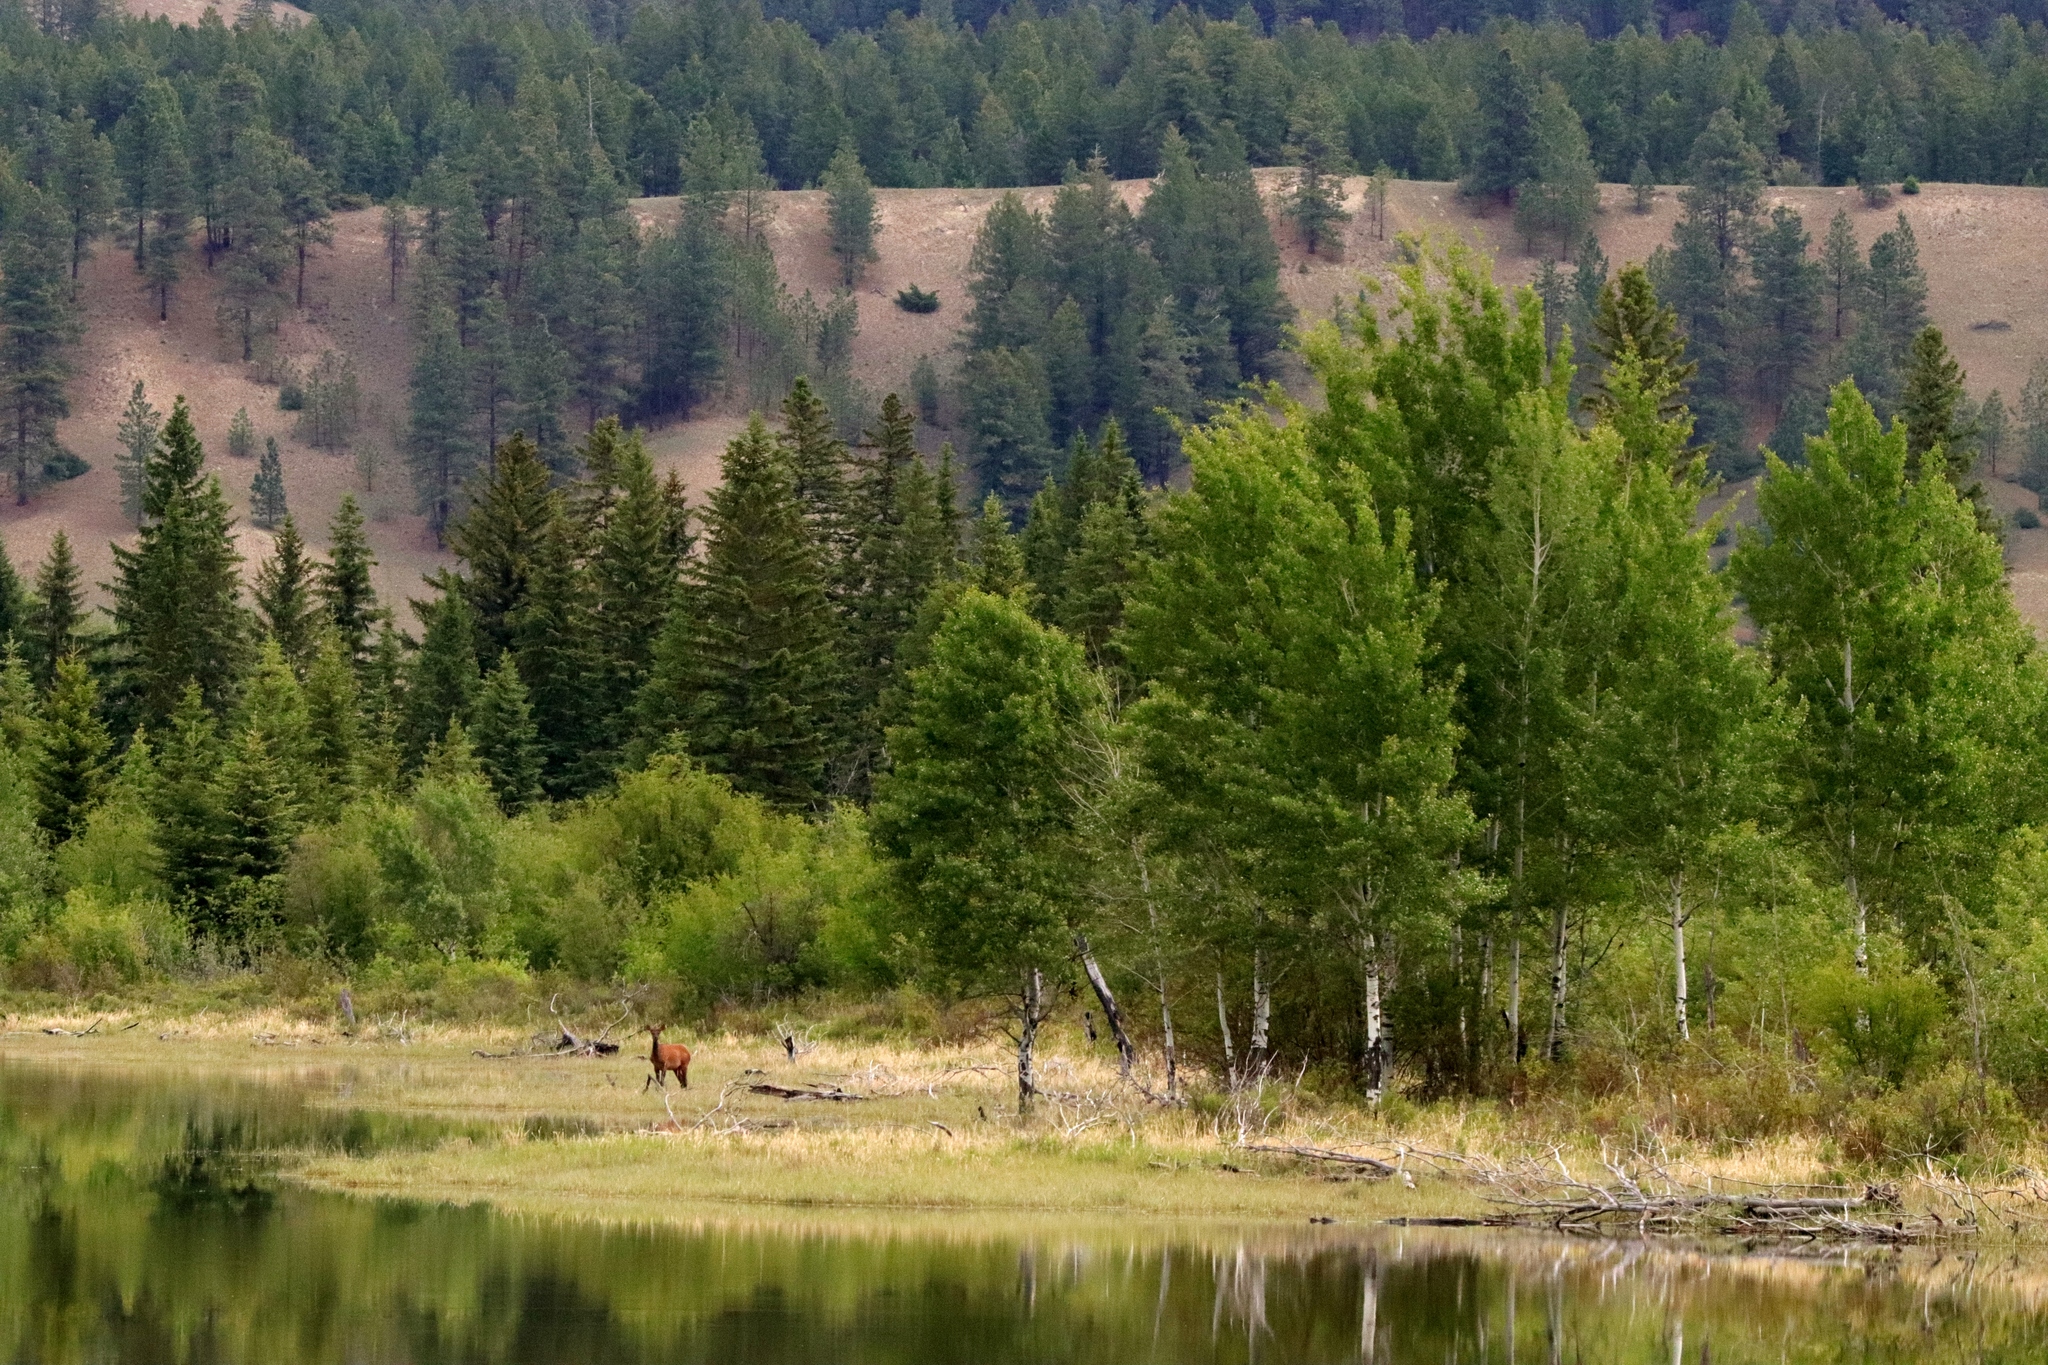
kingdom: Animalia
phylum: Chordata
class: Mammalia
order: Artiodactyla
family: Cervidae
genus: Cervus
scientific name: Cervus elaphus
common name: Red deer
